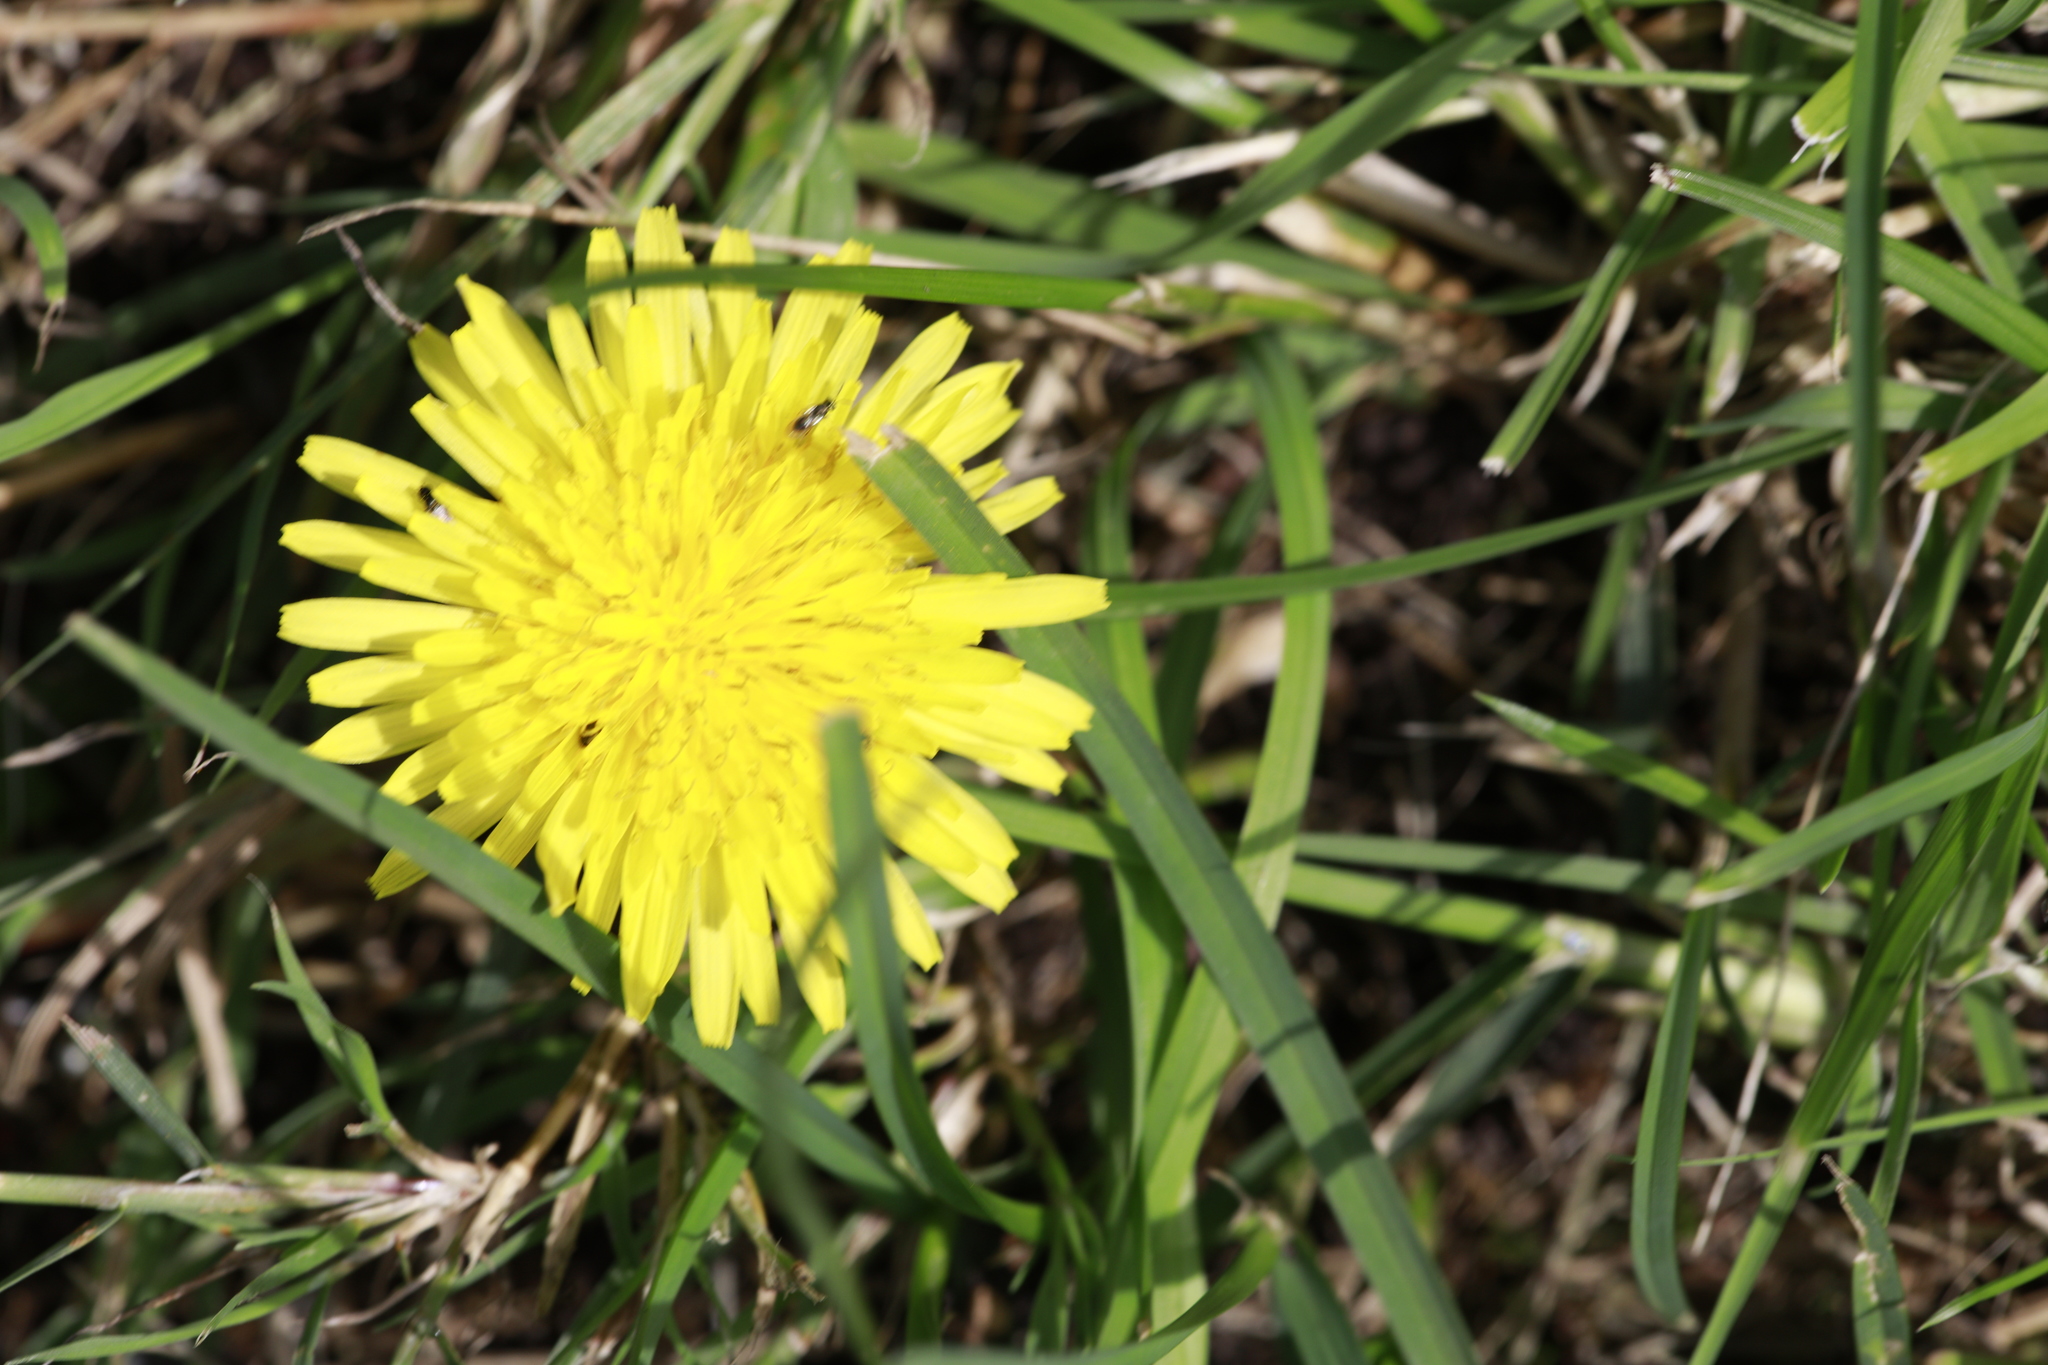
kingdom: Plantae
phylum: Tracheophyta
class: Magnoliopsida
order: Asterales
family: Asteraceae
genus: Taraxacum
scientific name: Taraxacum officinale
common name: Common dandelion
